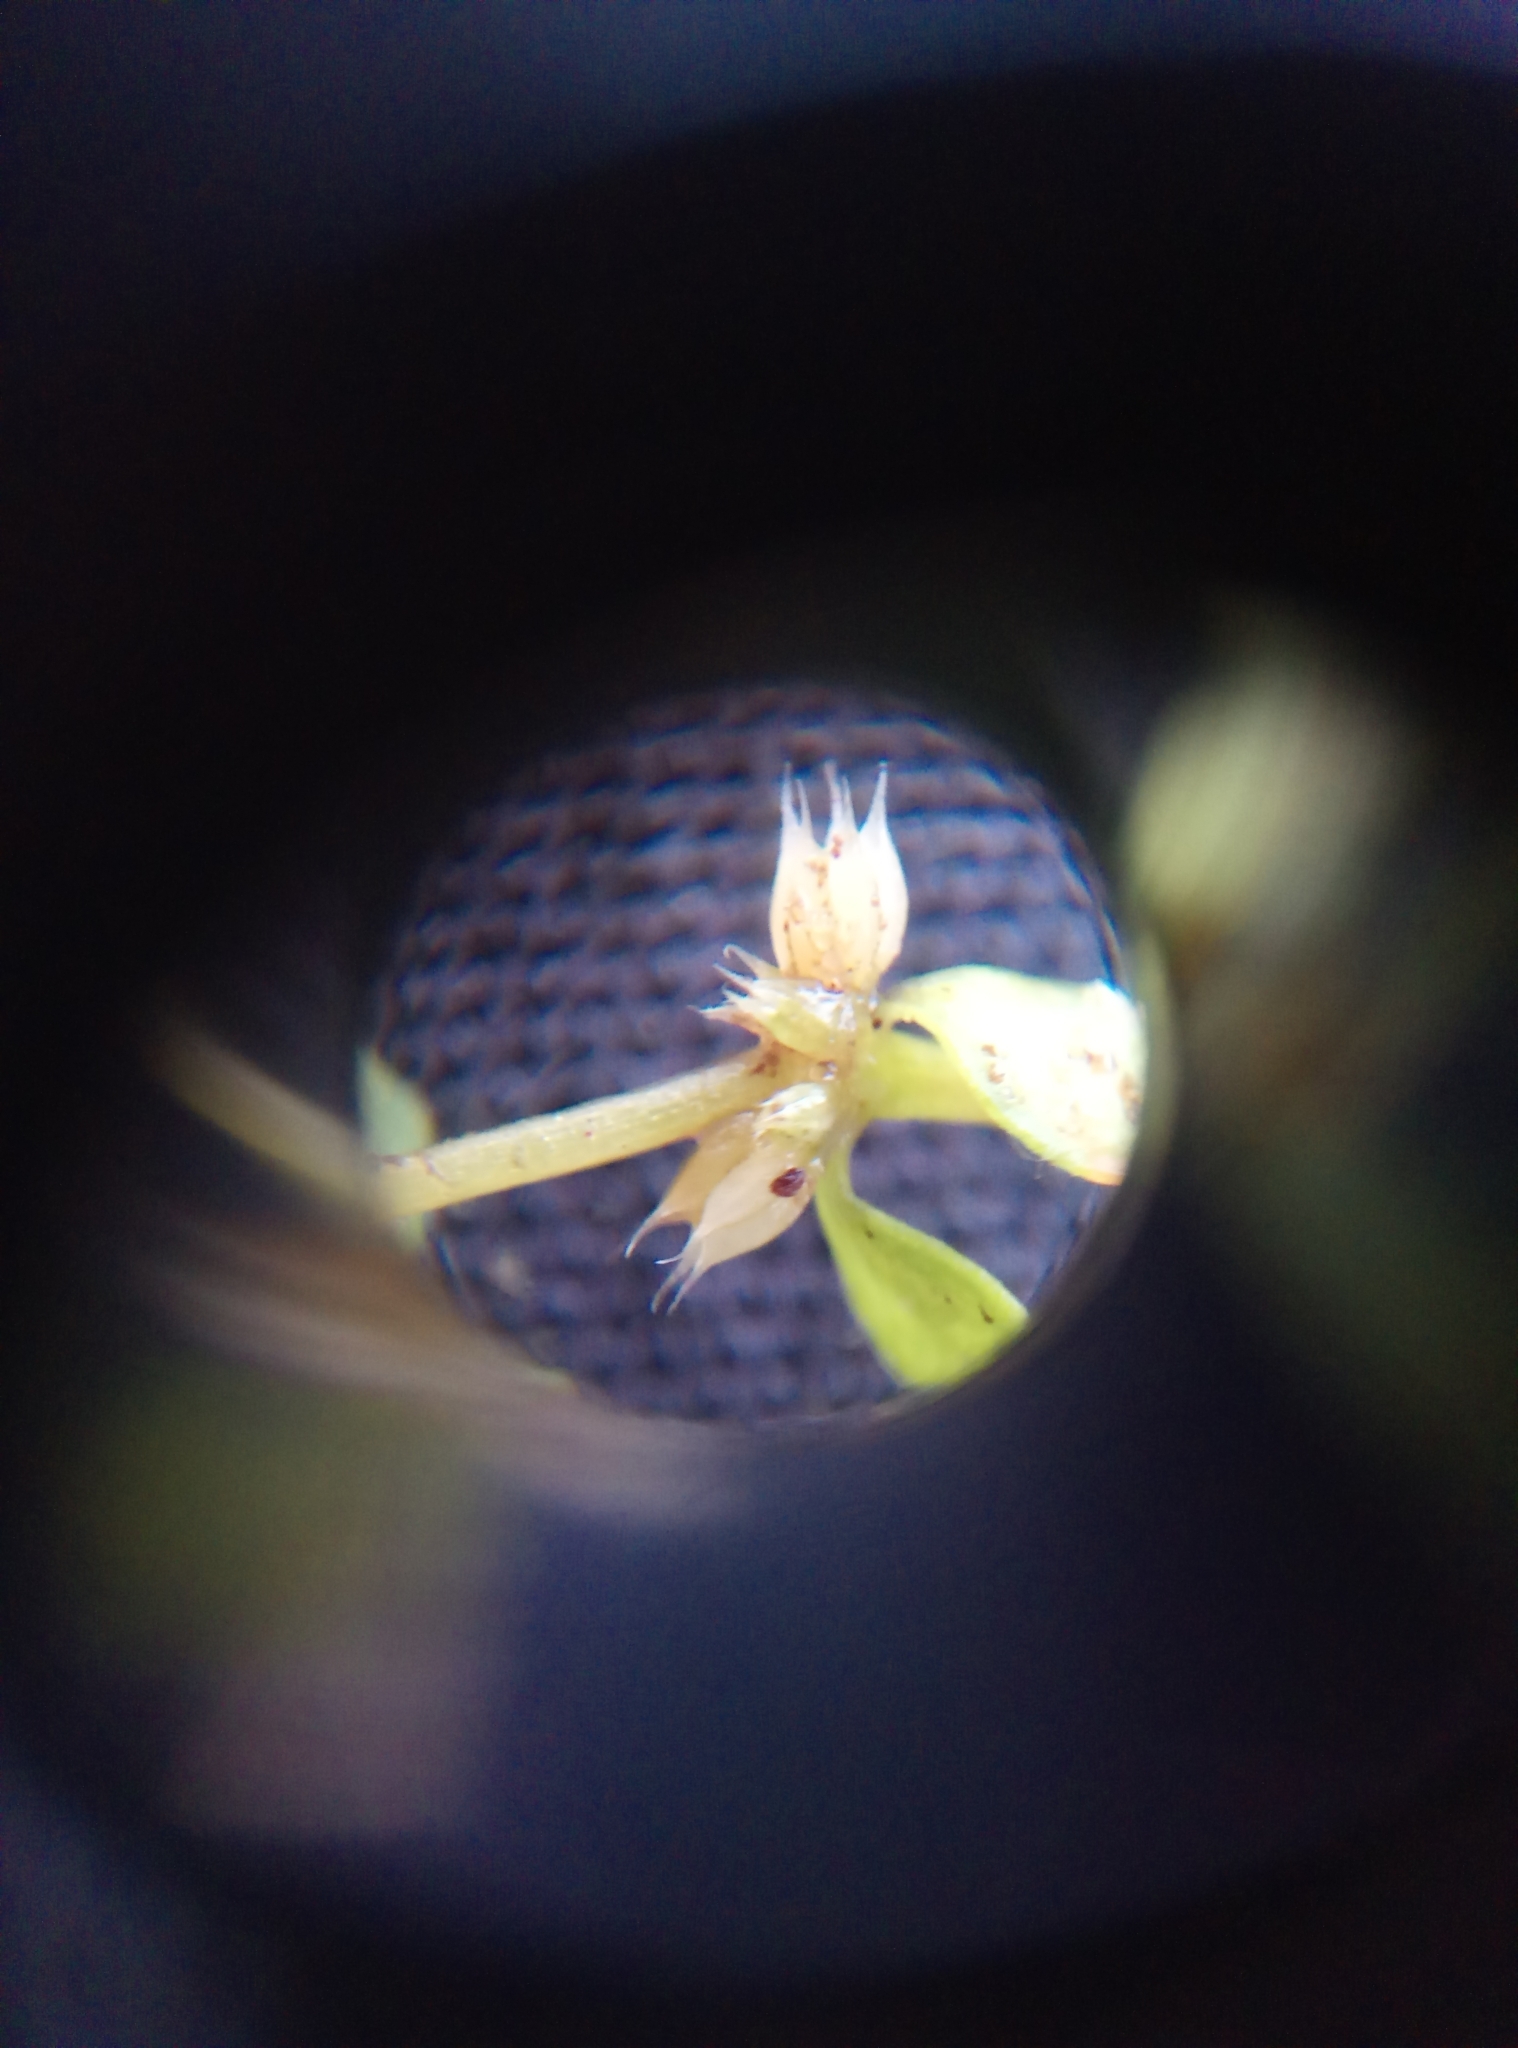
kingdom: Plantae
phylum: Tracheophyta
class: Magnoliopsida
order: Caryophyllales
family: Caryophyllaceae
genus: Illecebrum
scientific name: Illecebrum verticillatum
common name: Coral necklace
